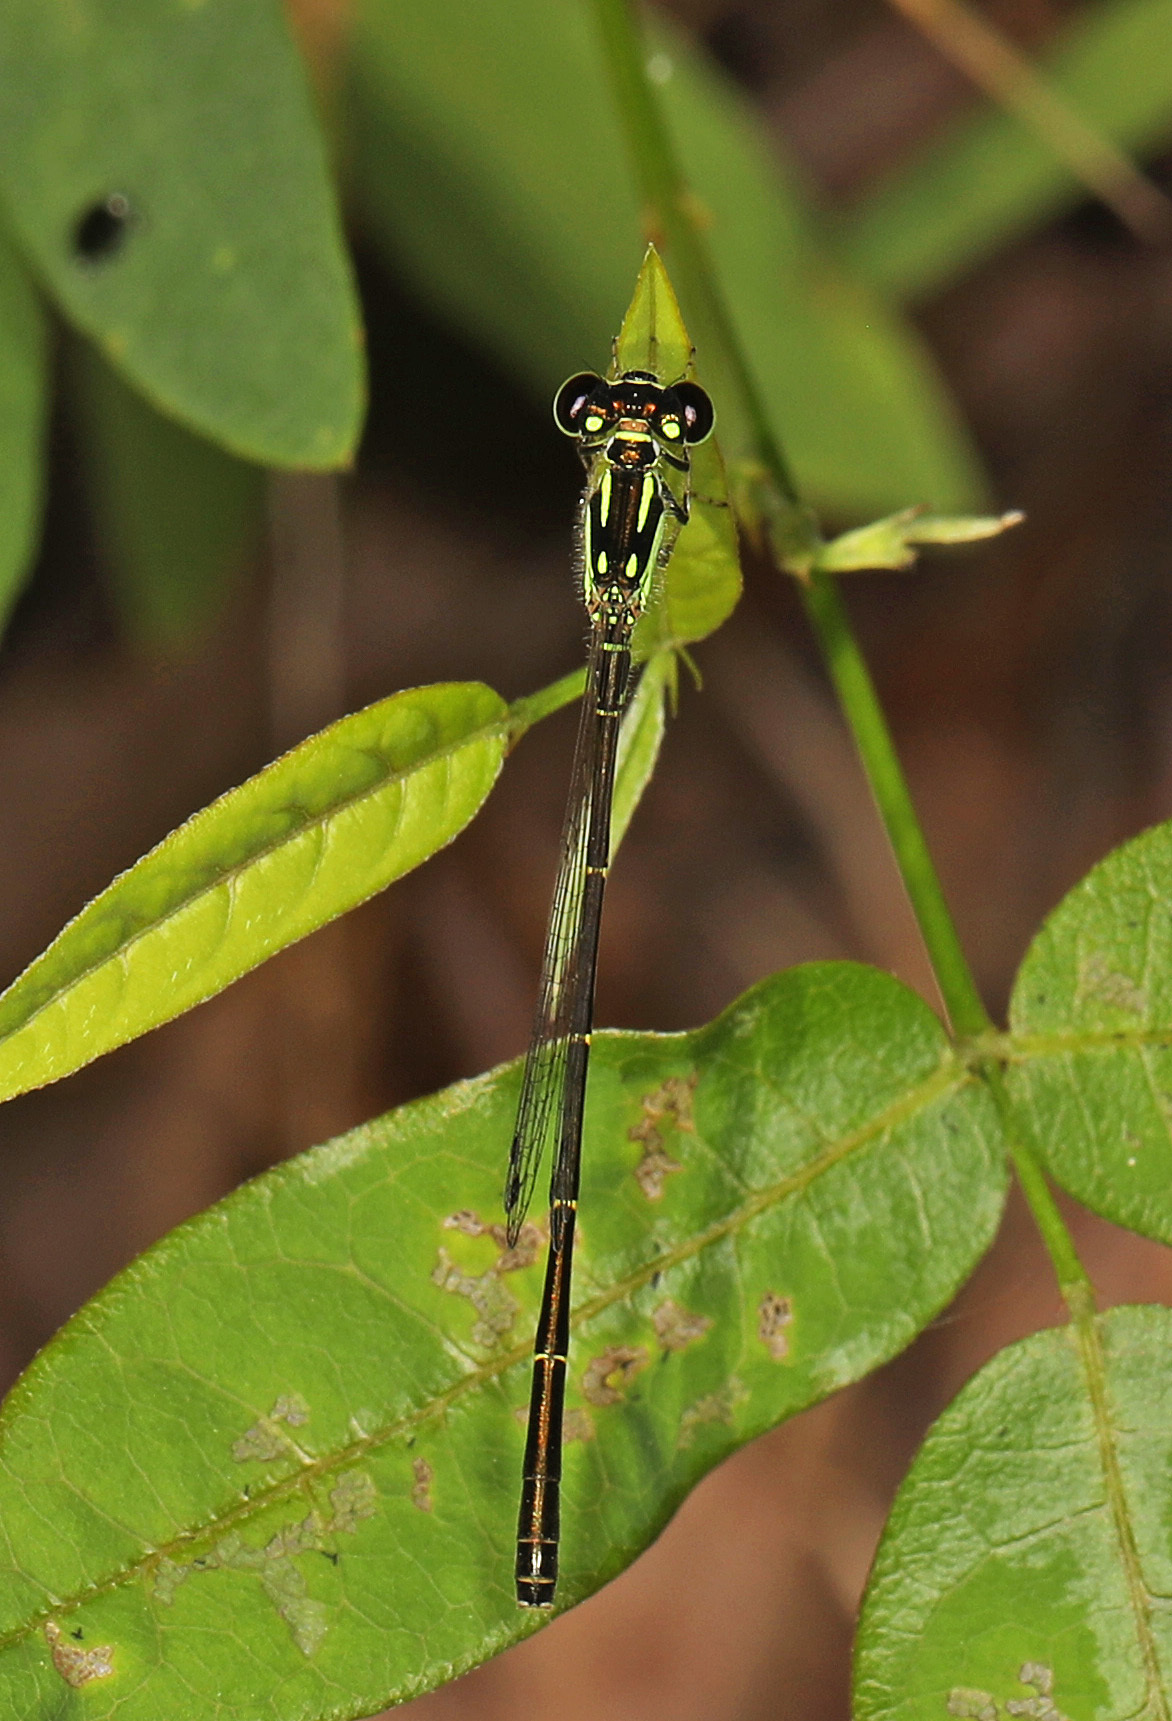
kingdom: Animalia
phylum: Arthropoda
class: Insecta
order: Odonata
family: Coenagrionidae
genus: Ischnura
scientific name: Ischnura posita
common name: Fragile forktail
